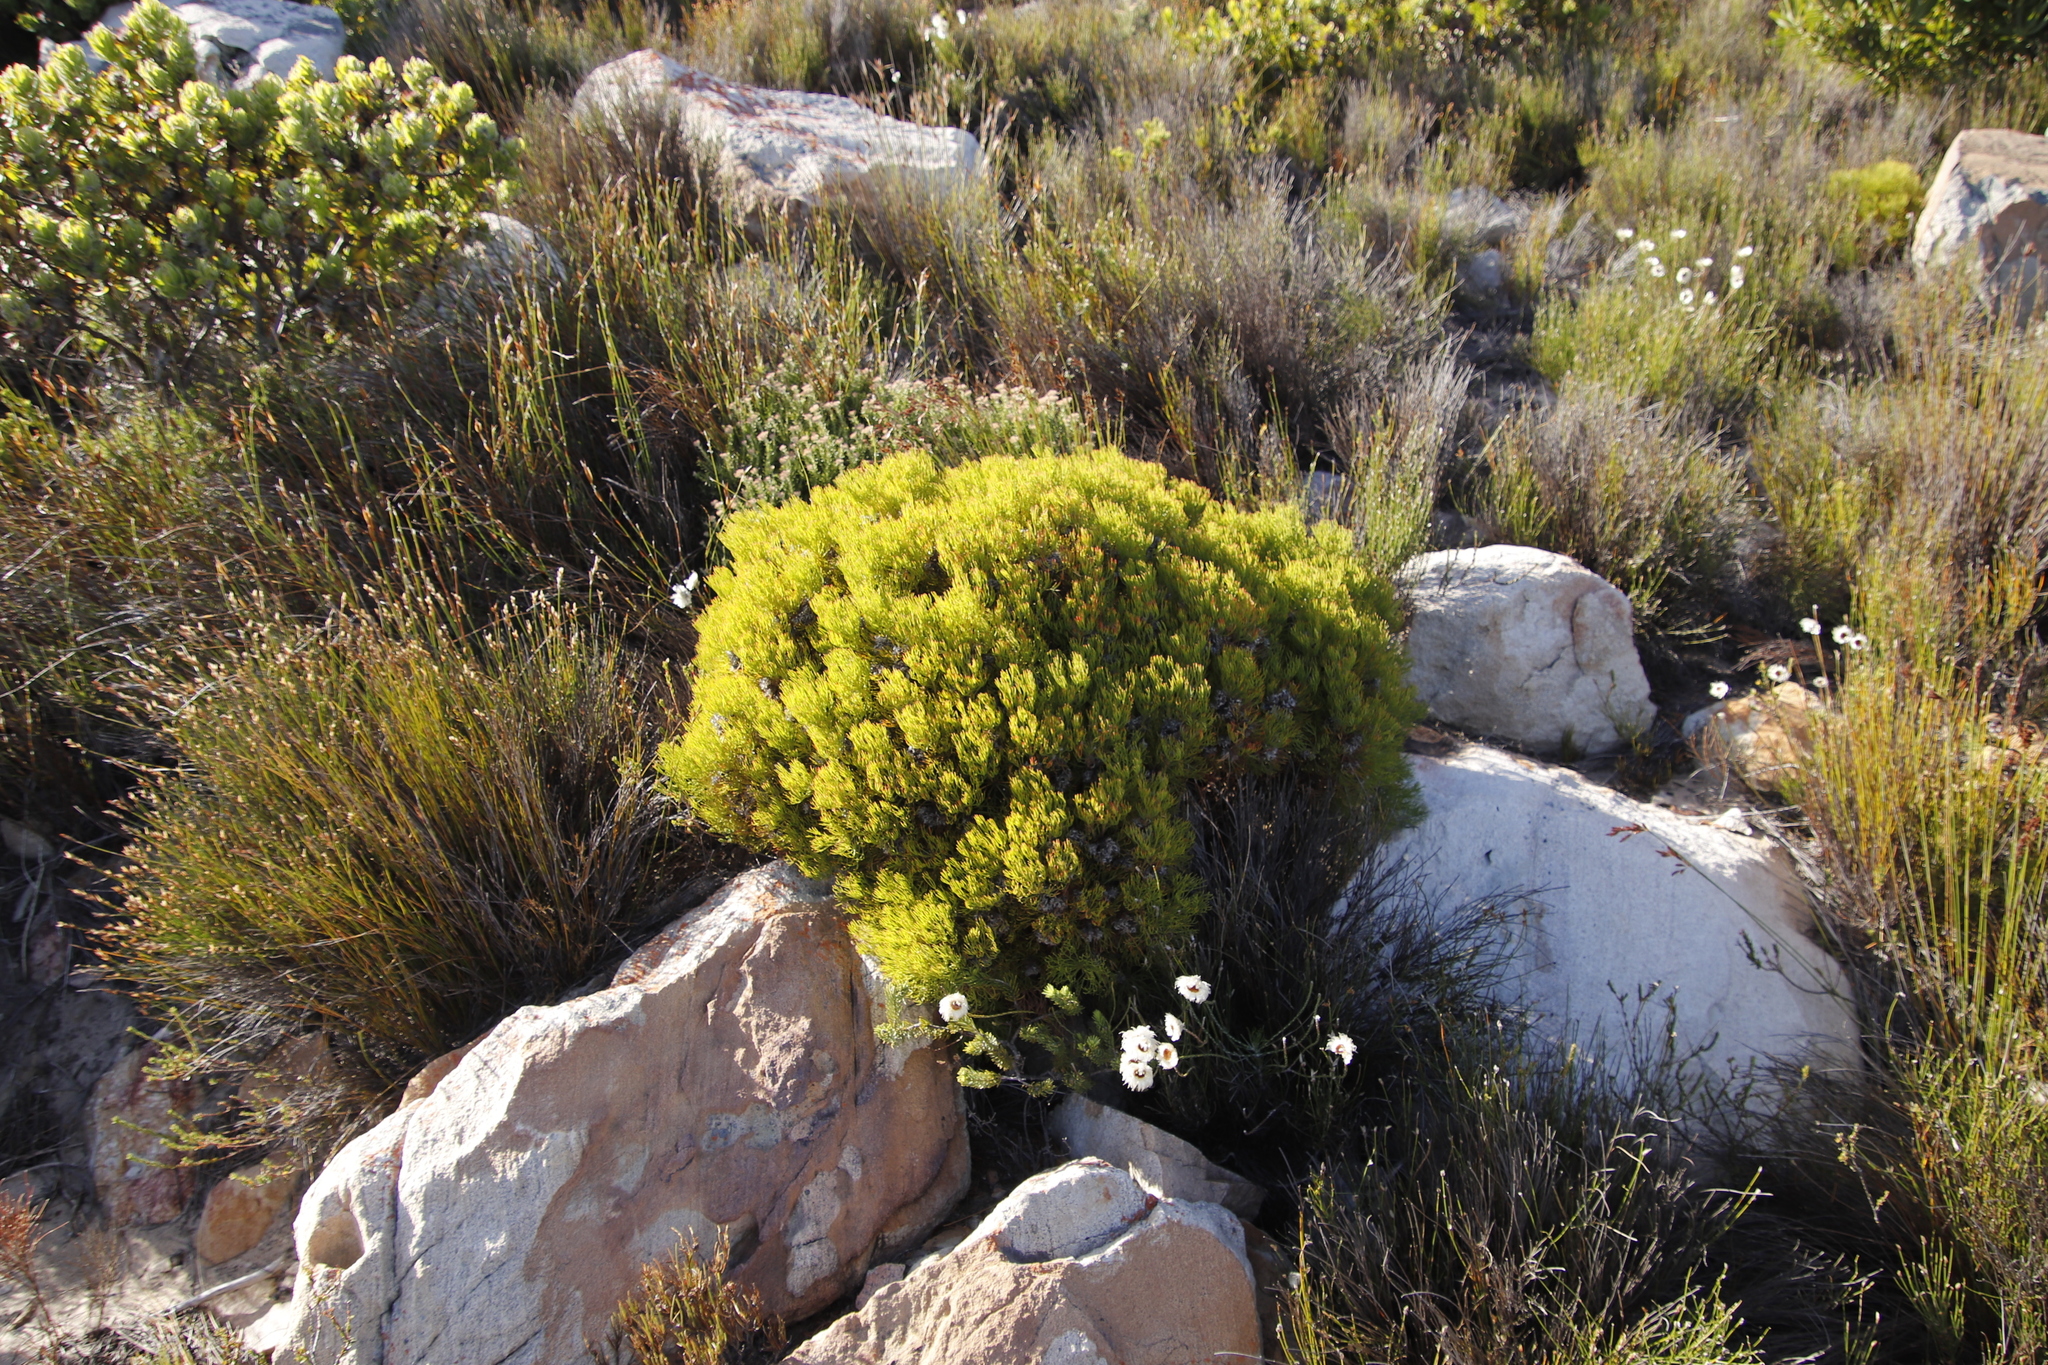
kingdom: Plantae
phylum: Tracheophyta
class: Magnoliopsida
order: Proteales
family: Proteaceae
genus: Serruria
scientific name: Serruria ascendens
